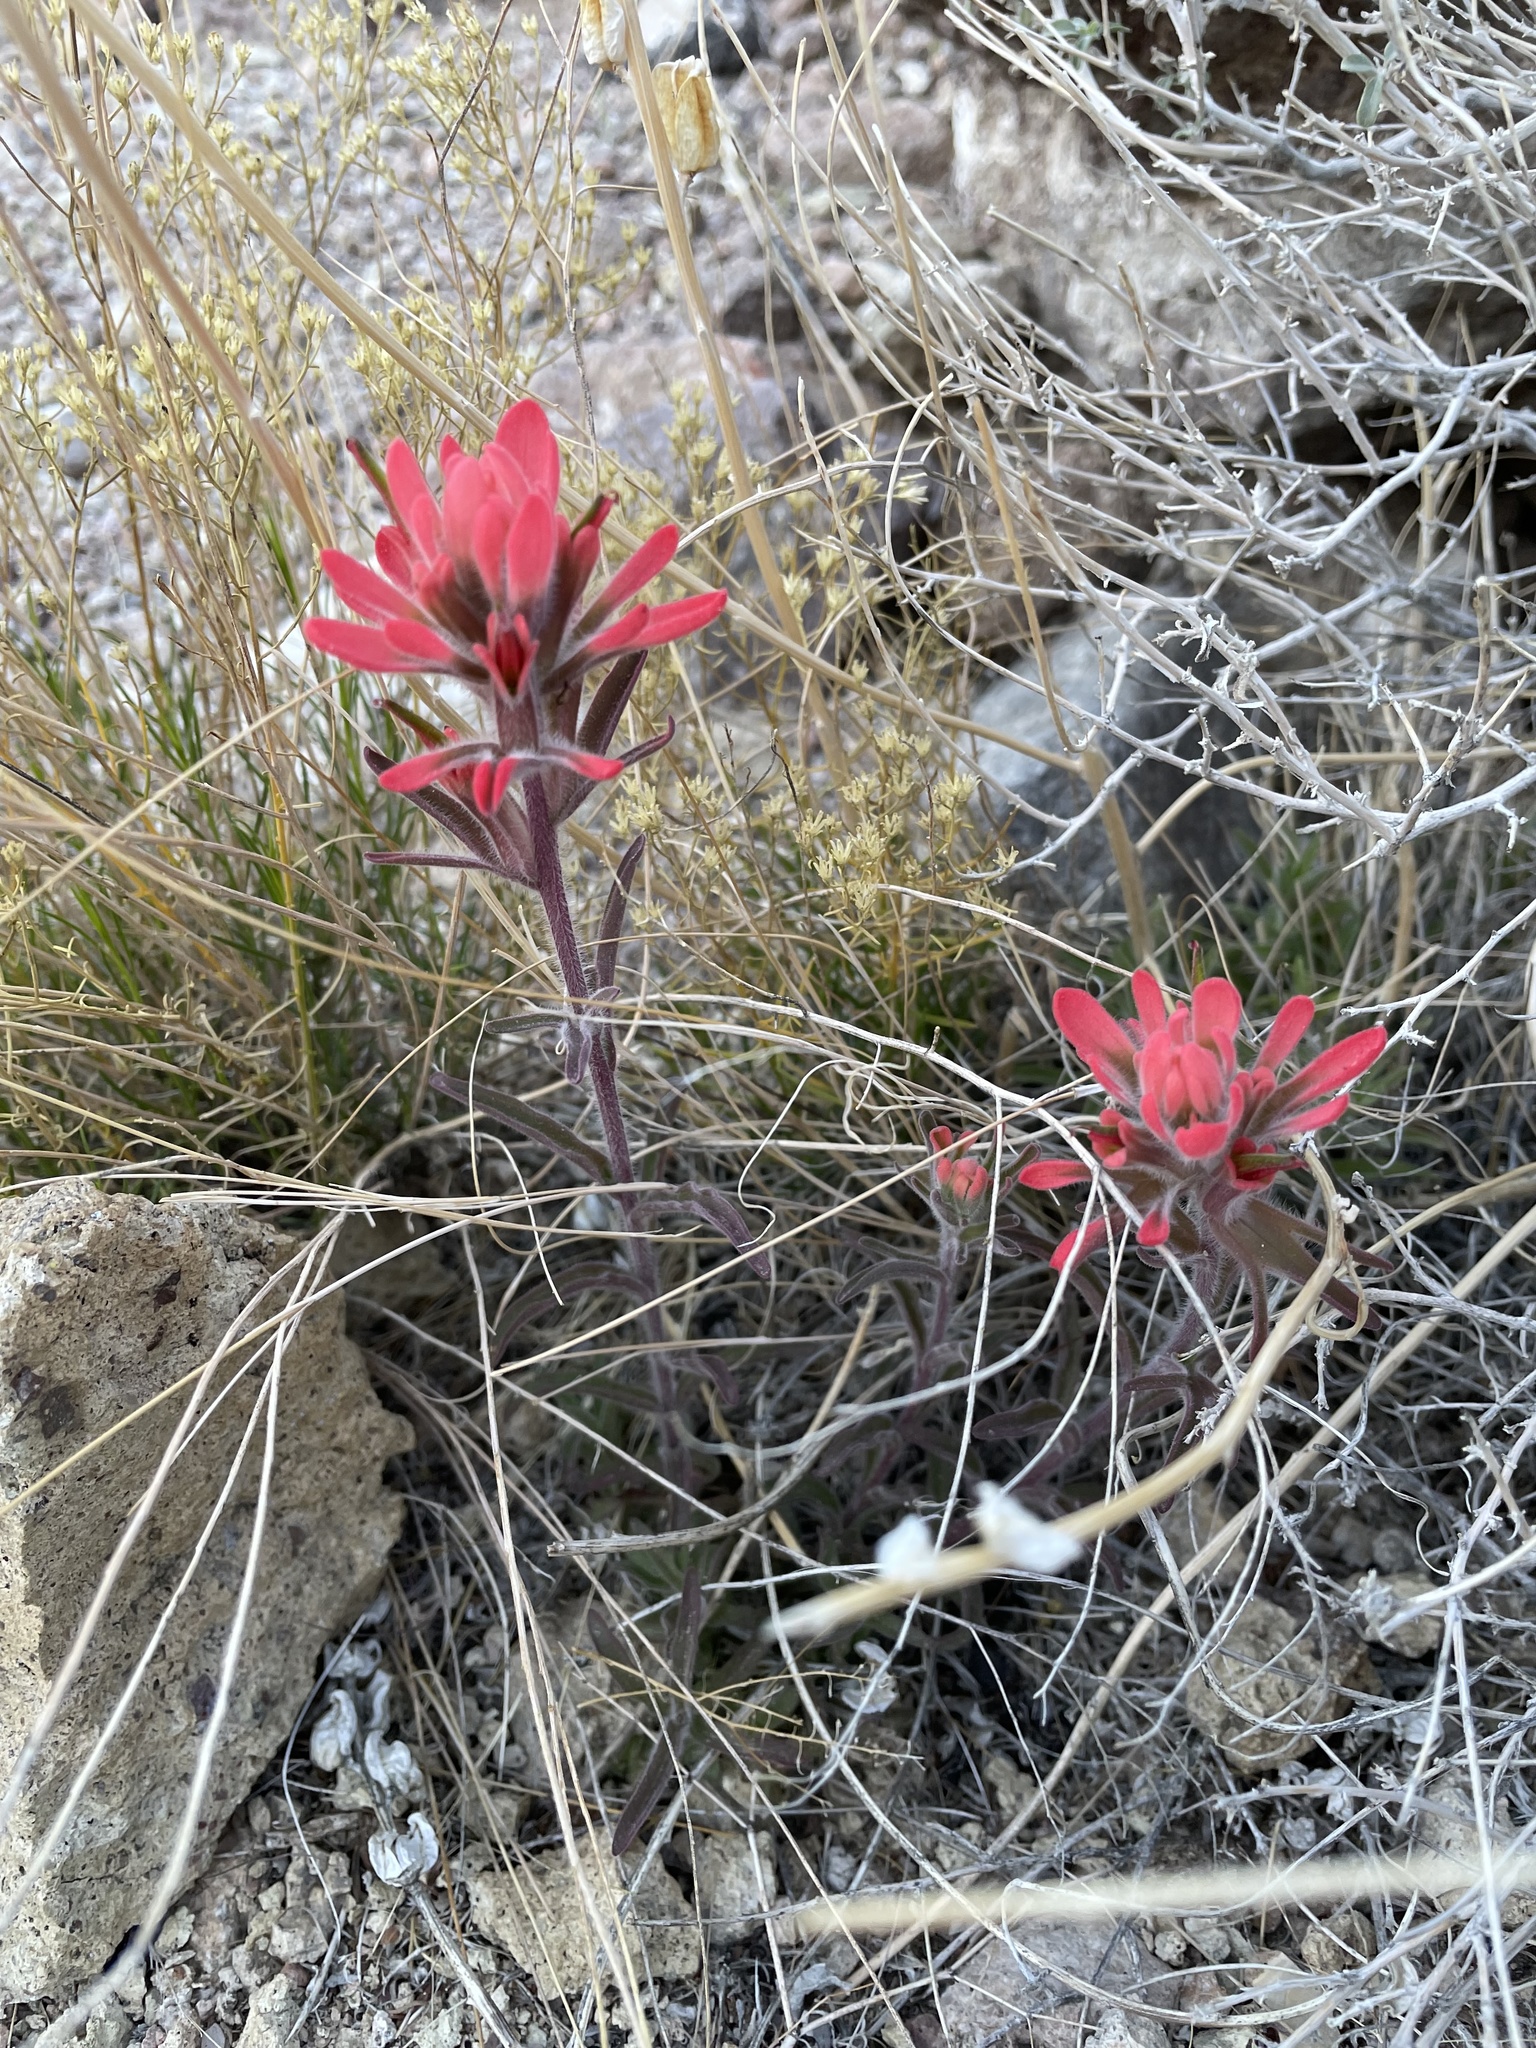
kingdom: Plantae
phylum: Tracheophyta
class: Magnoliopsida
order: Lamiales
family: Orobanchaceae
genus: Castilleja
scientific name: Castilleja chromosa
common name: Desert paintbrush
